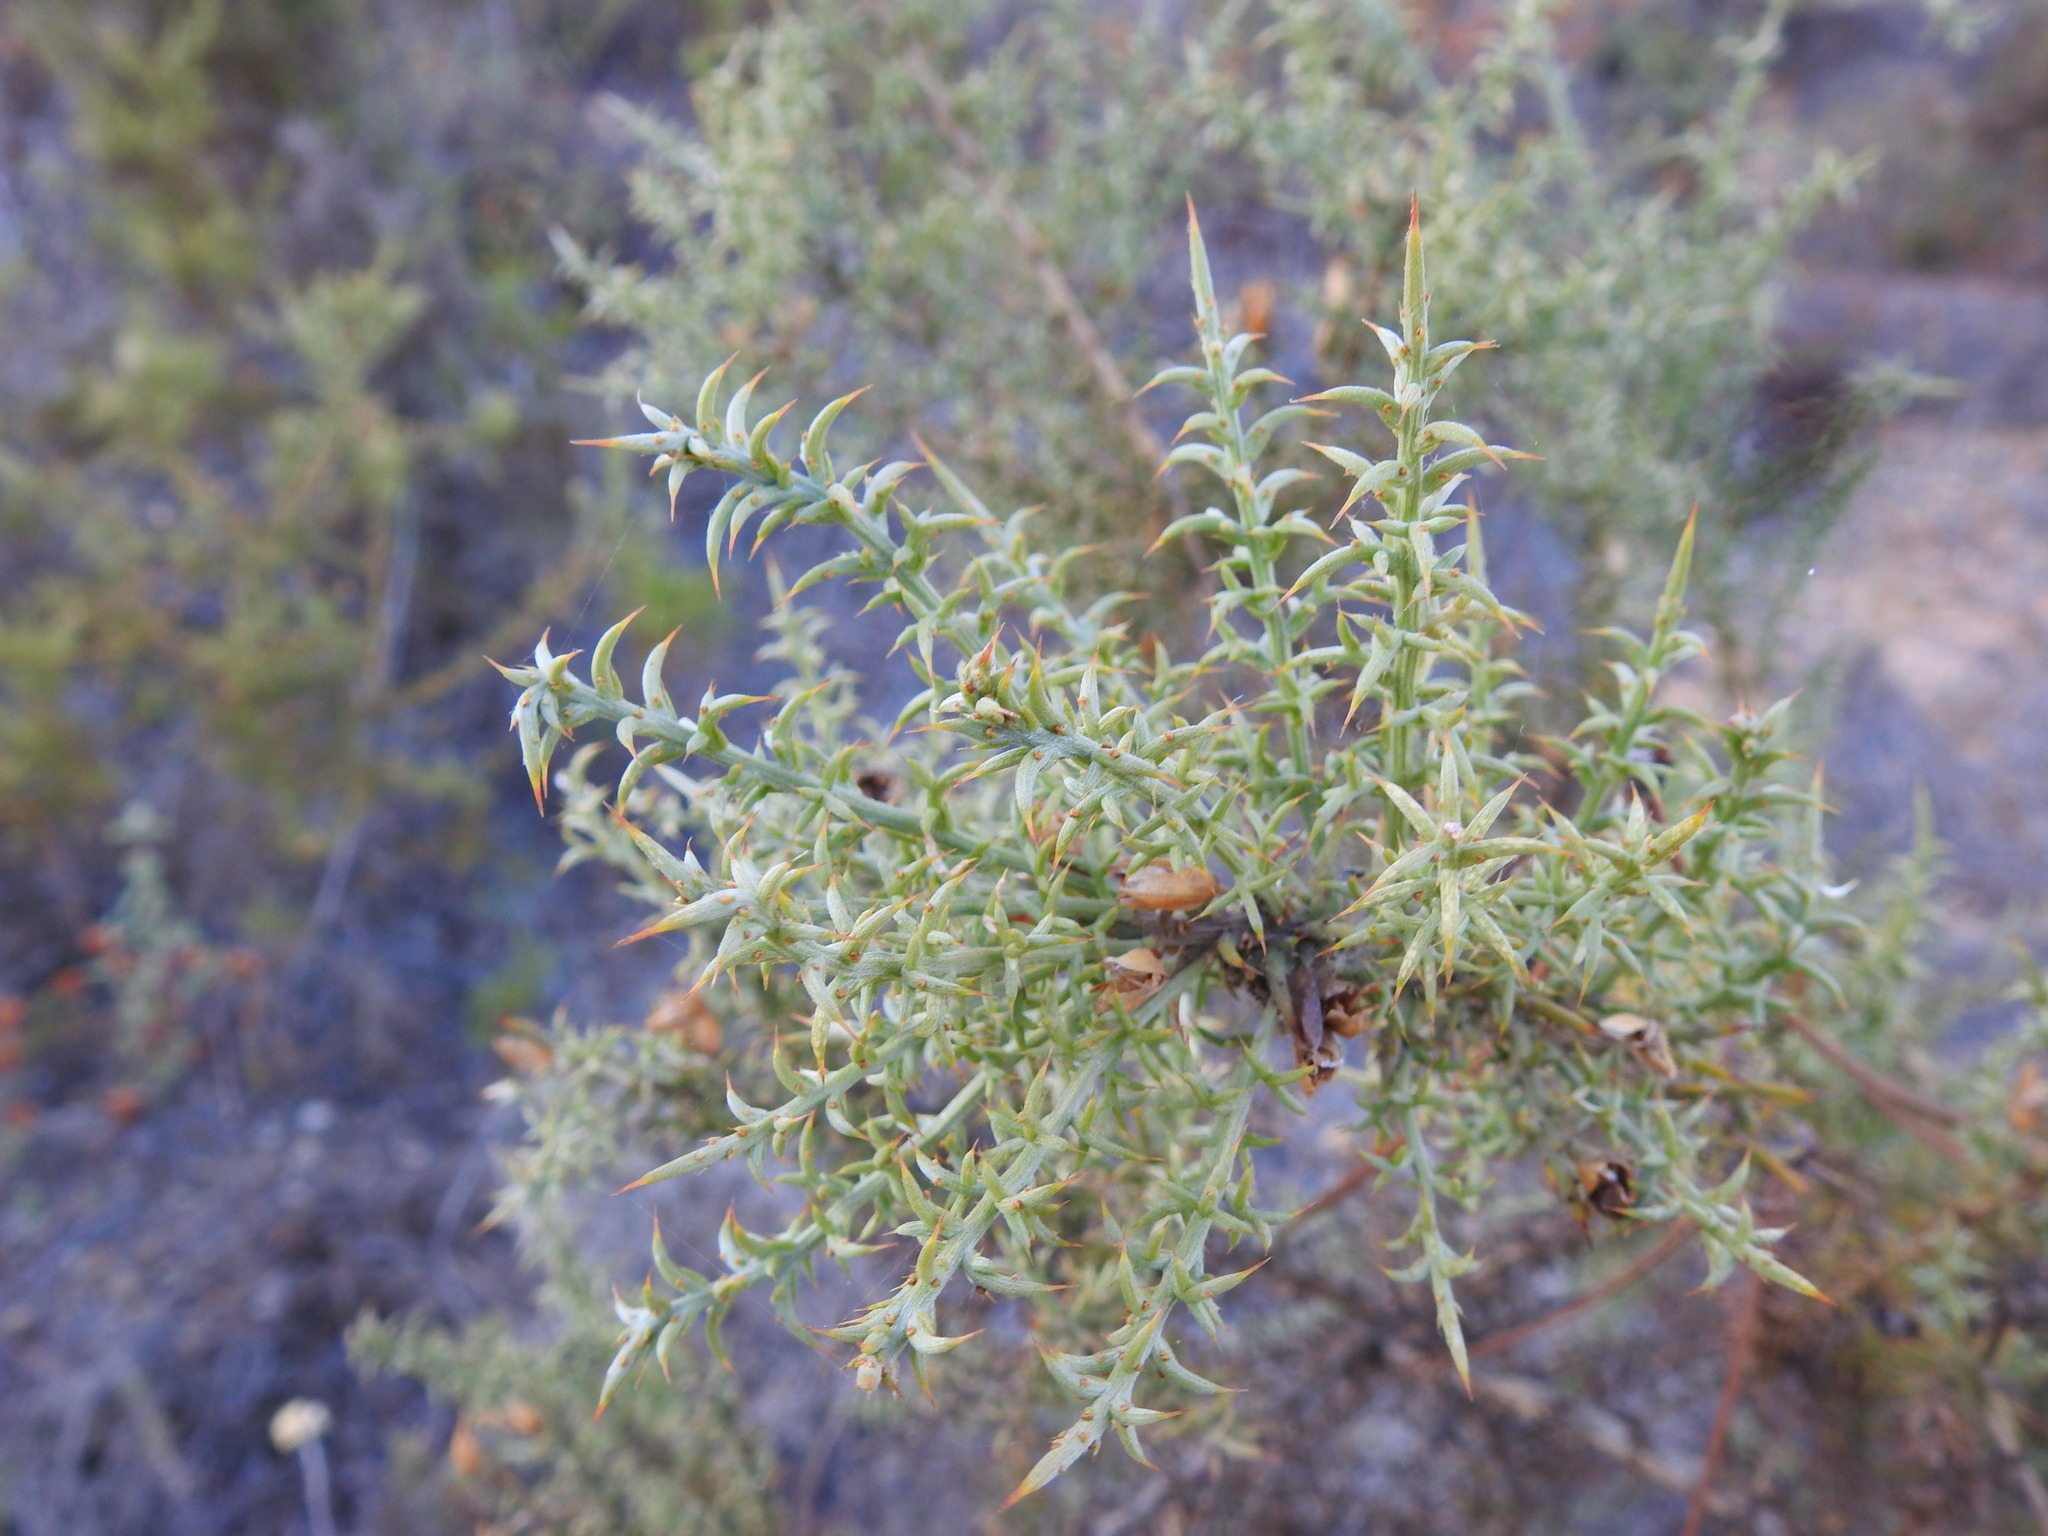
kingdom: Plantae
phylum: Tracheophyta
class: Magnoliopsida
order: Fabales
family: Fabaceae
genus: Ulex
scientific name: Ulex argenteus
